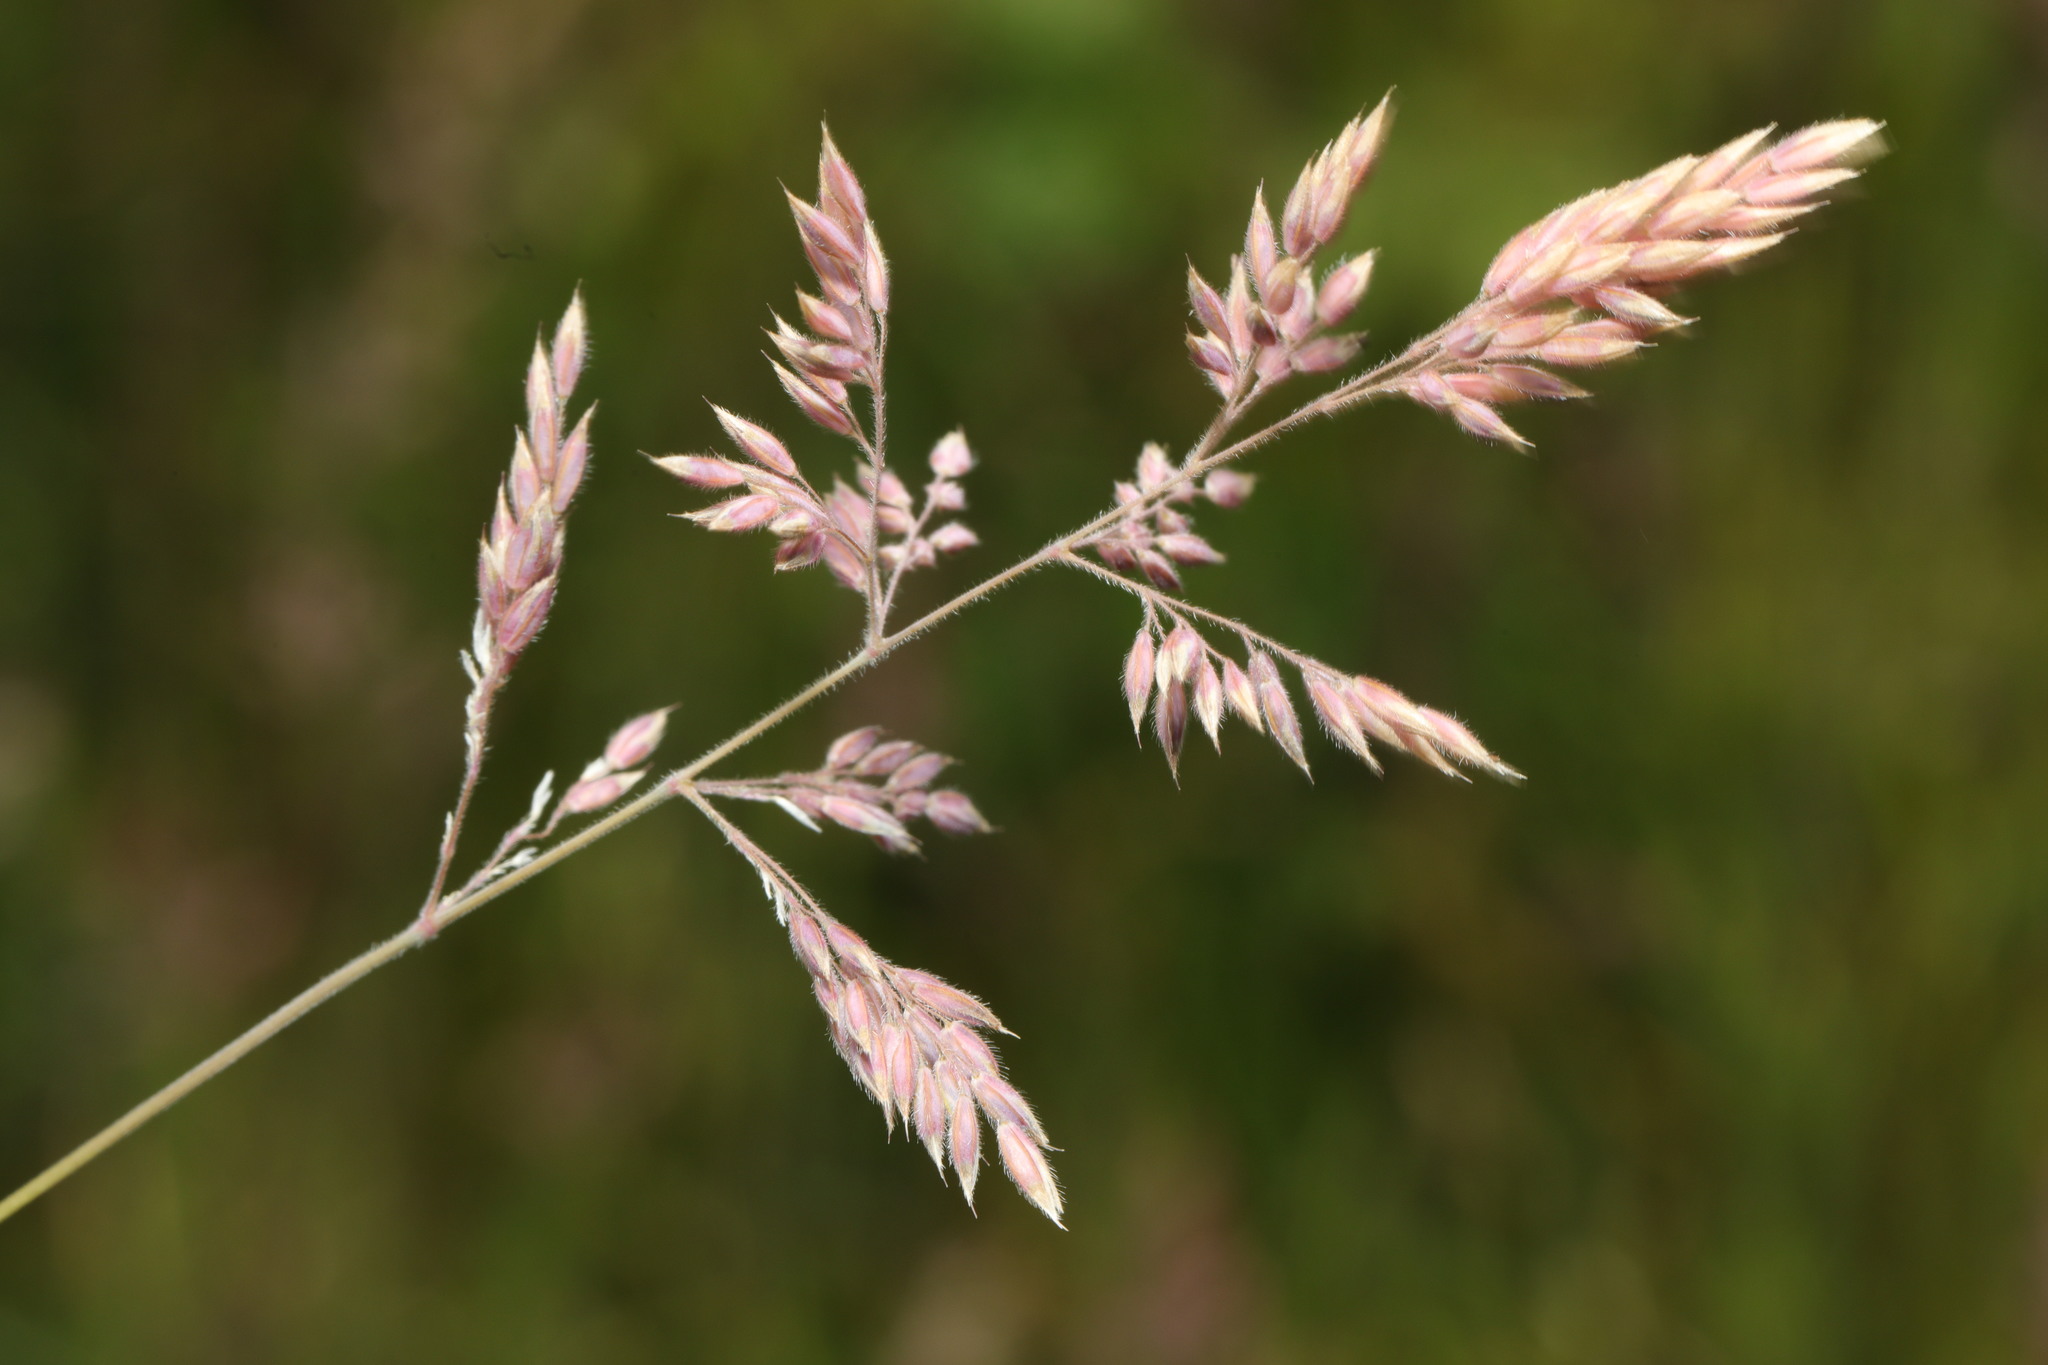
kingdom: Plantae
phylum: Tracheophyta
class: Liliopsida
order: Poales
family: Poaceae
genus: Holcus
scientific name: Holcus lanatus
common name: Yorkshire-fog
